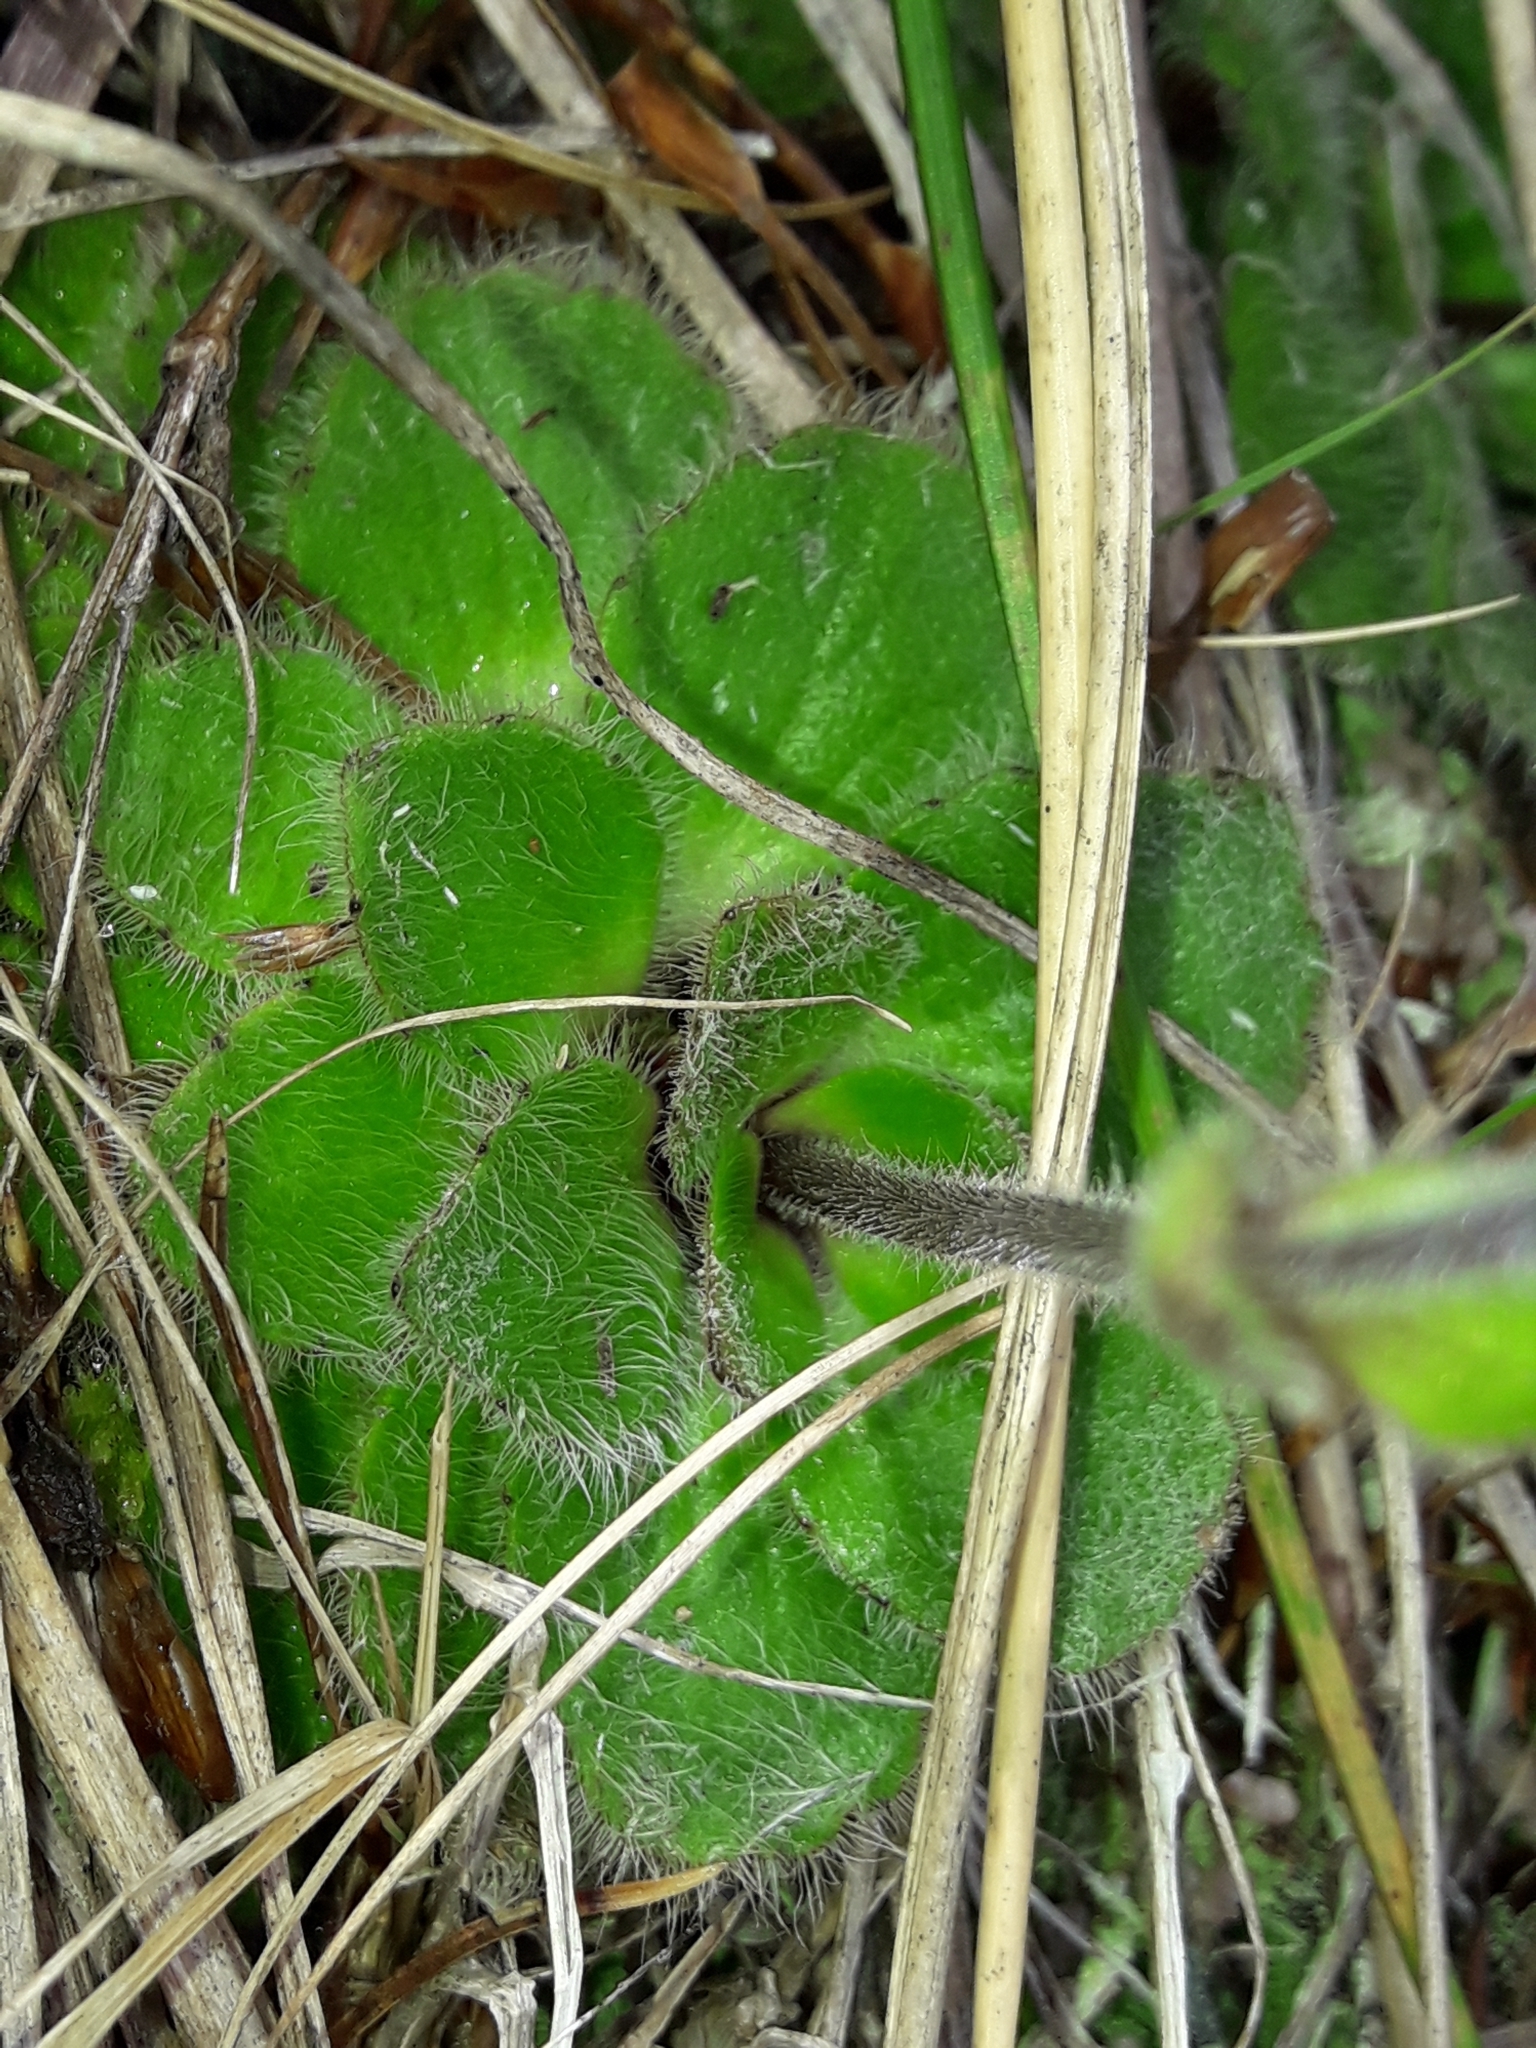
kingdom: Plantae
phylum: Tracheophyta
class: Magnoliopsida
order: Lamiales
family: Plantaginaceae
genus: Ourisia
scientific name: Ourisia confertifolia
